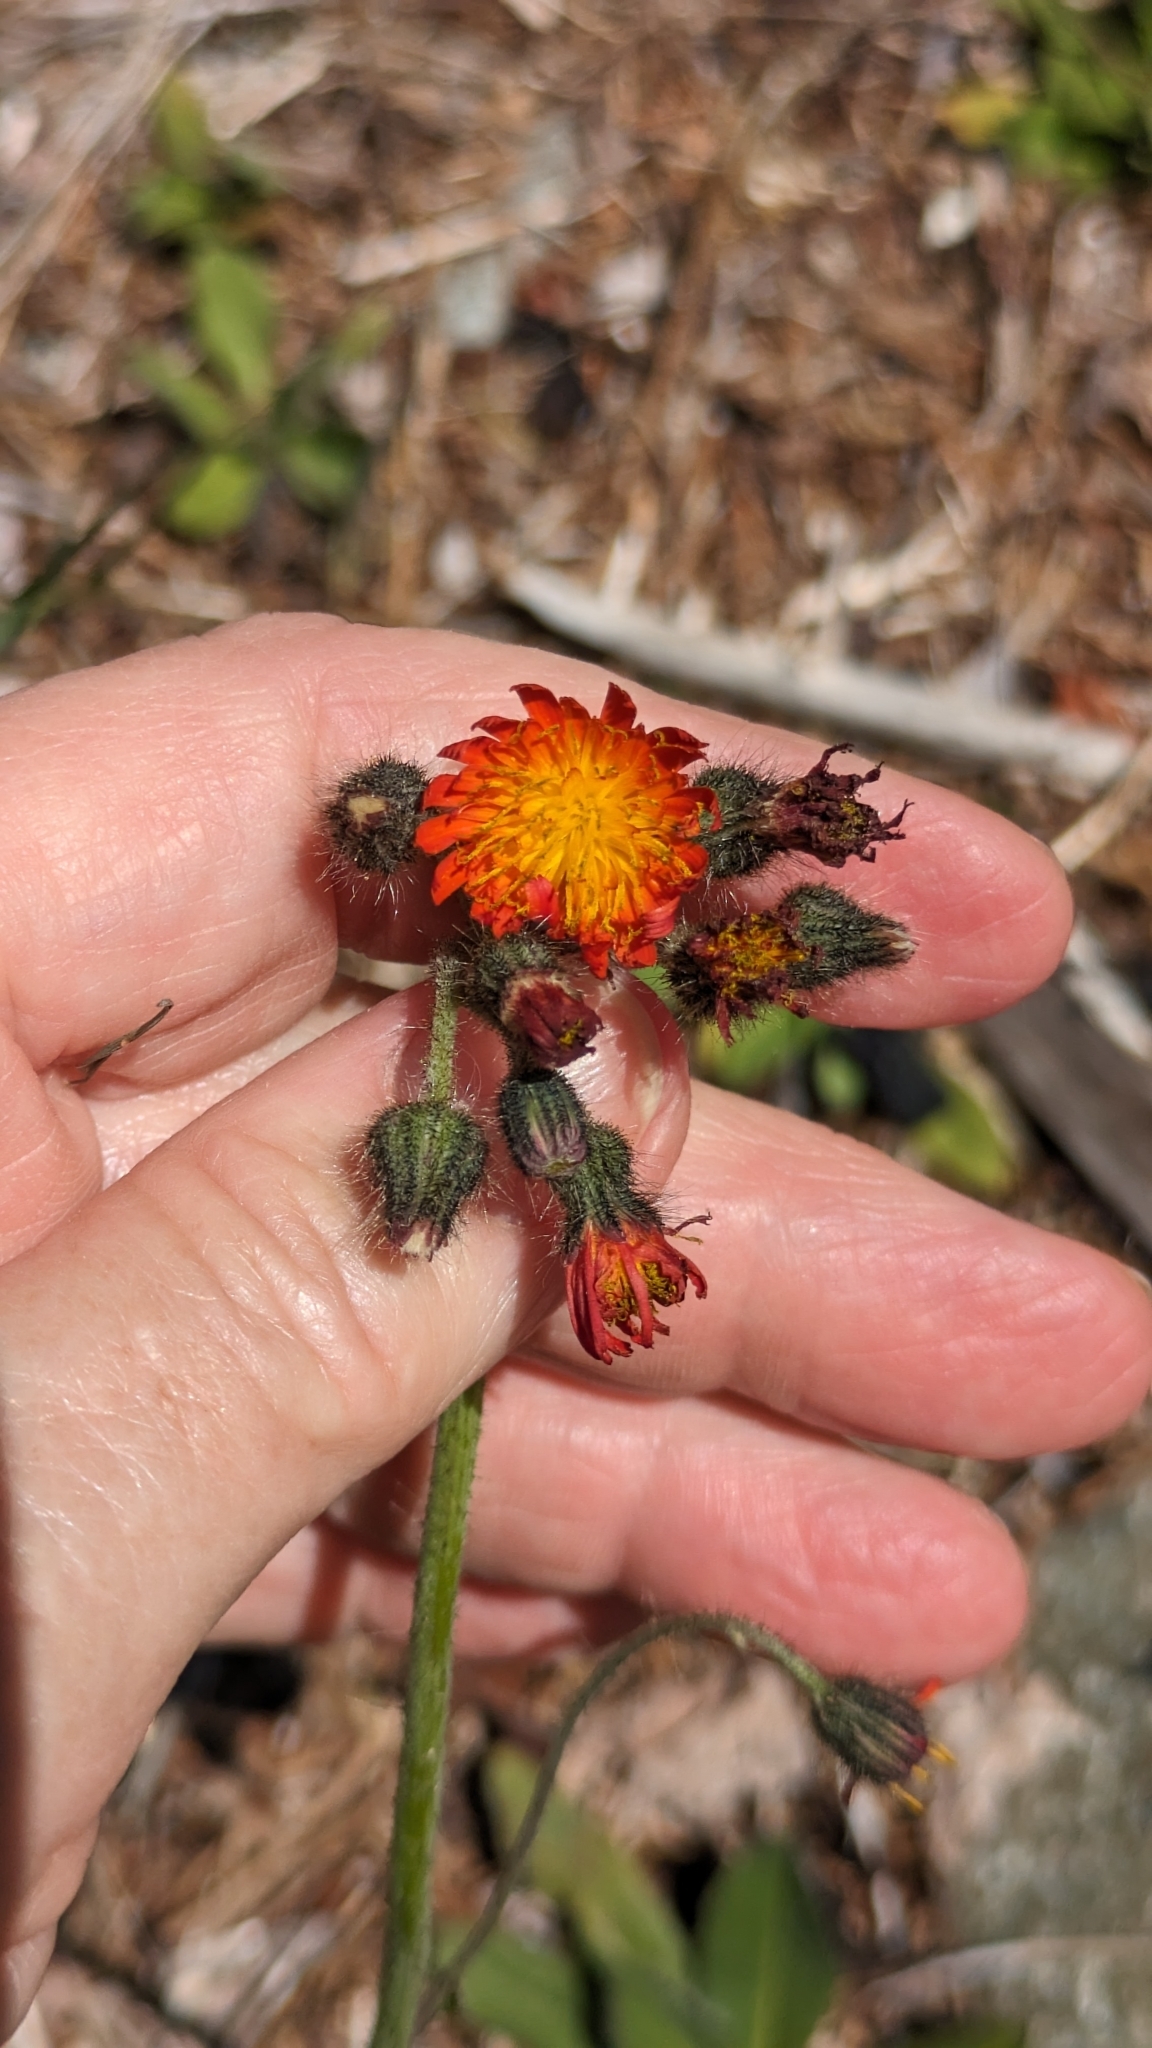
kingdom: Plantae
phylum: Tracheophyta
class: Magnoliopsida
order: Asterales
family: Asteraceae
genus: Pilosella
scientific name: Pilosella aurantiaca
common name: Fox-and-cubs
